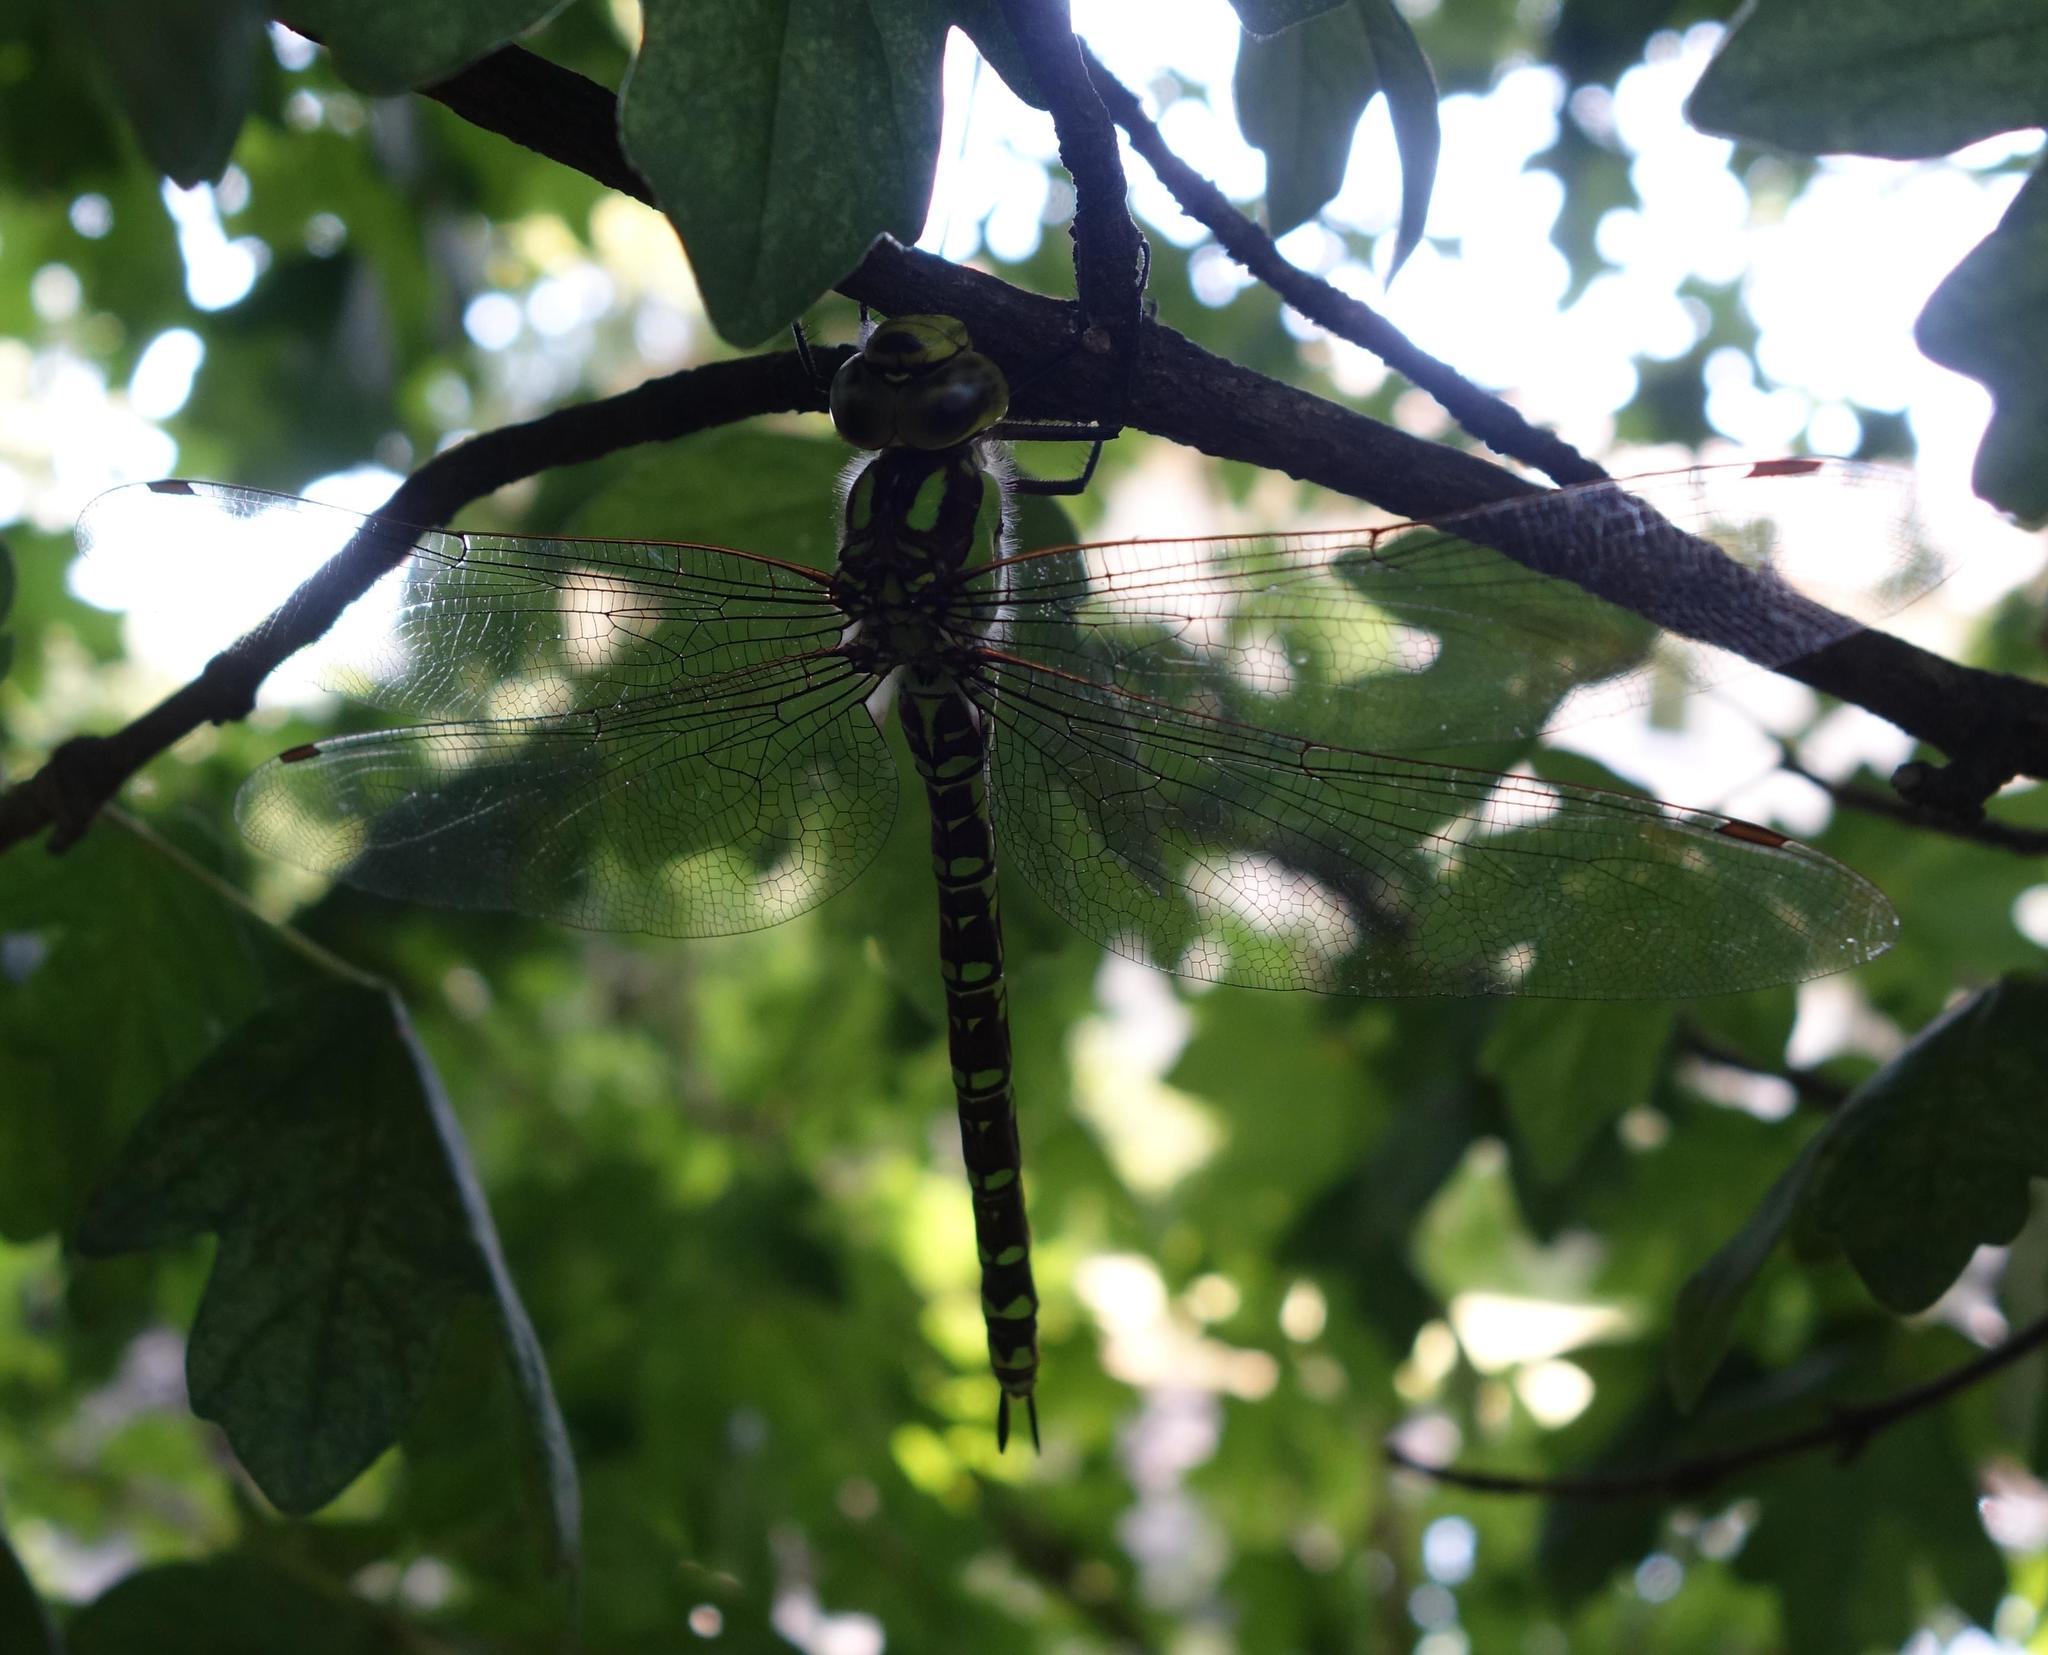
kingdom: Animalia
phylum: Arthropoda
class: Insecta
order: Odonata
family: Aeshnidae
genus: Aeshna
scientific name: Aeshna cyanea
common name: Southern hawker
